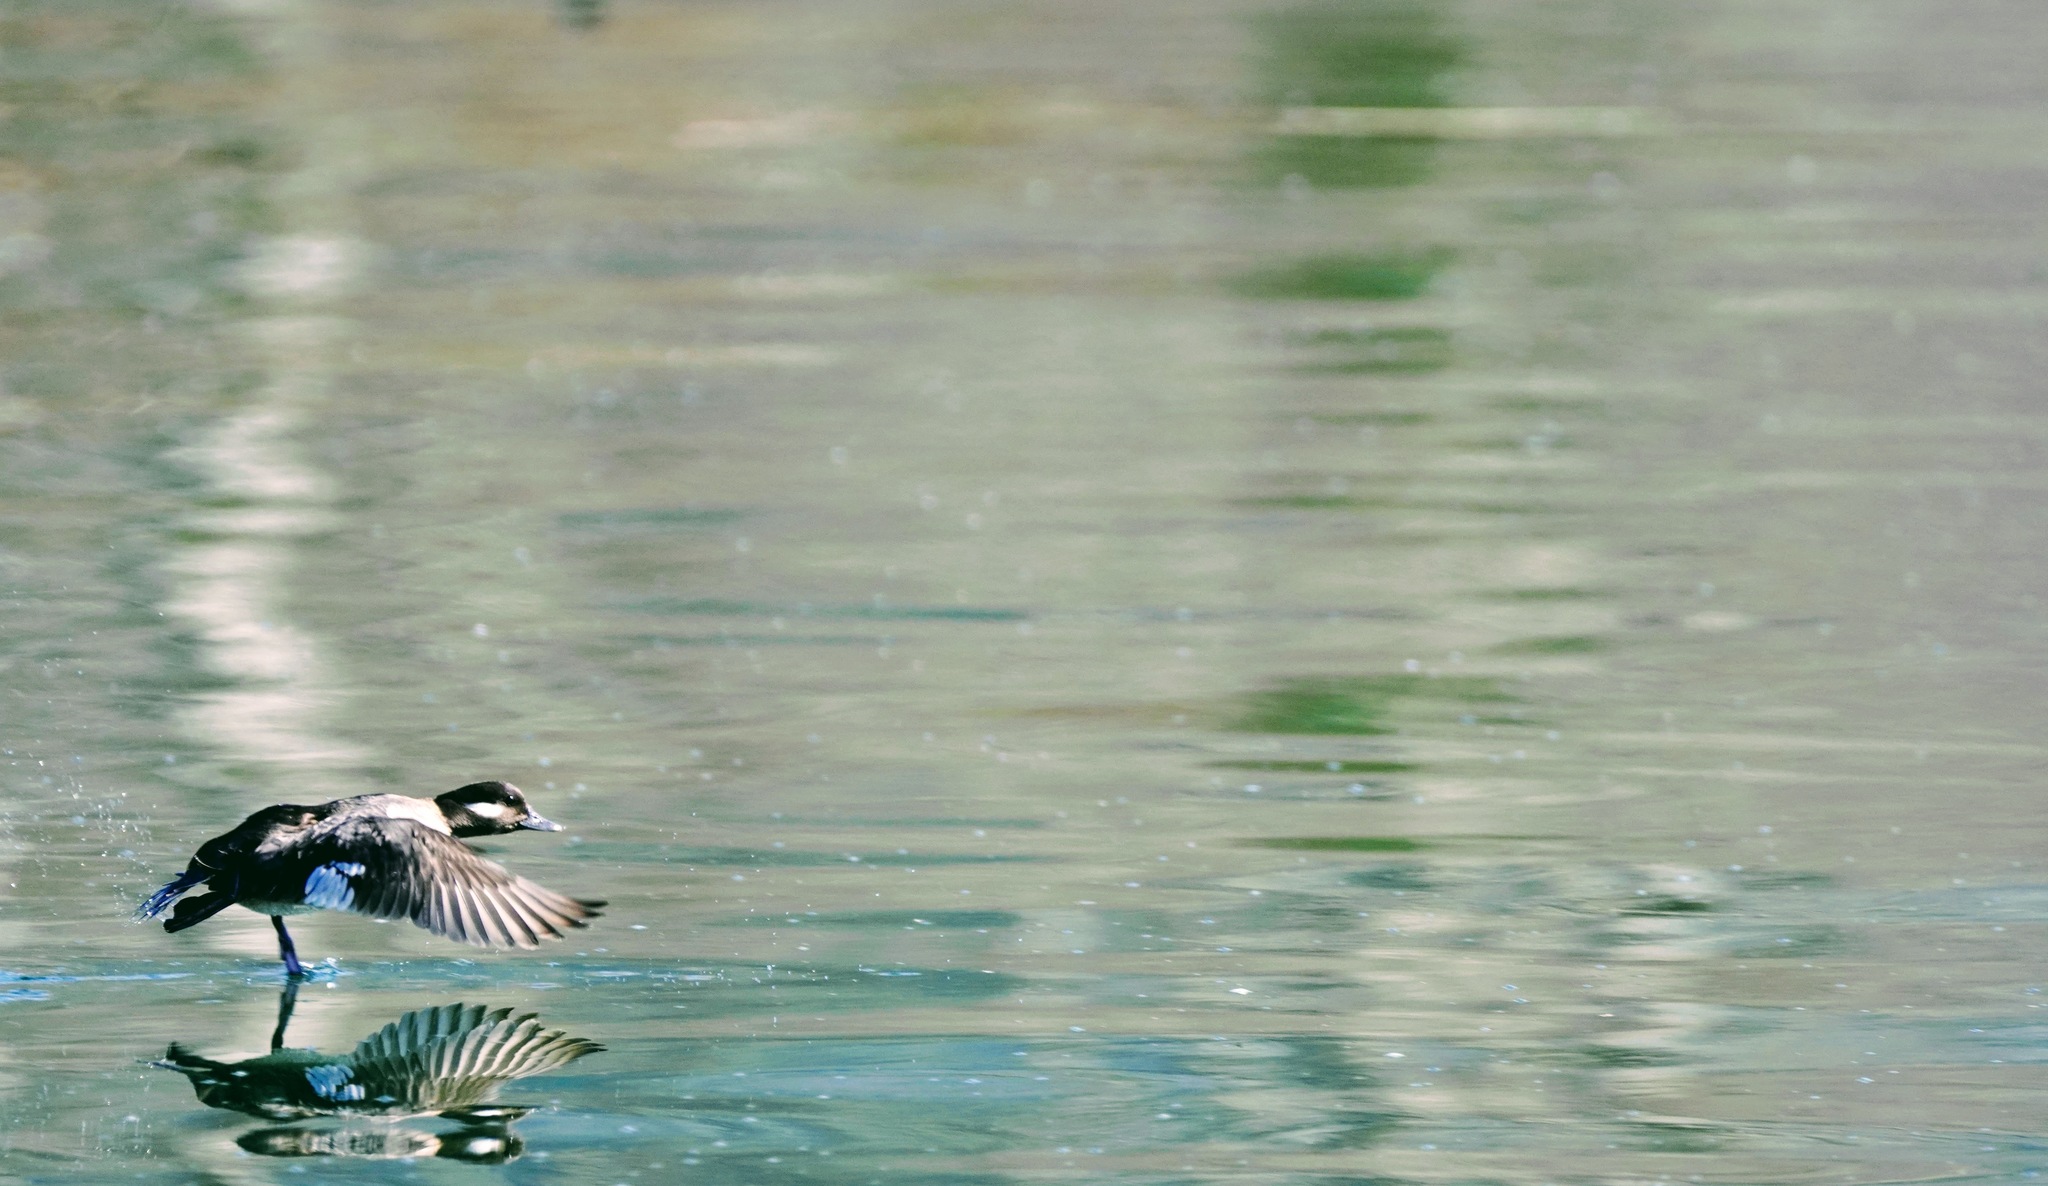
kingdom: Animalia
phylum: Chordata
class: Aves
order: Anseriformes
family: Anatidae
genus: Bucephala
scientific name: Bucephala albeola
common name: Bufflehead
